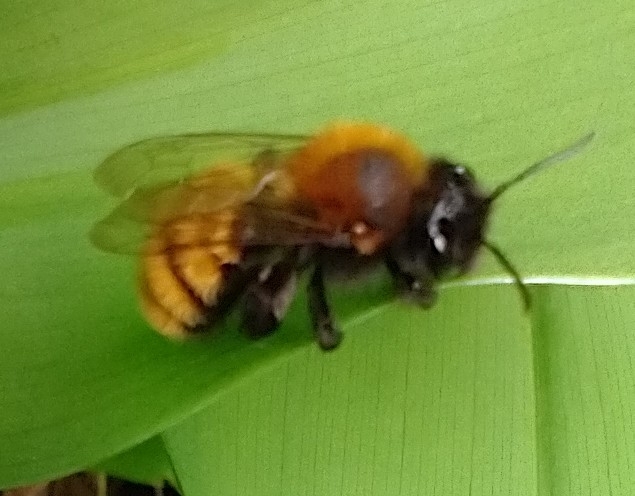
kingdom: Animalia
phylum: Arthropoda
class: Insecta
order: Hymenoptera
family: Andrenidae
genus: Andrena
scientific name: Andrena fulva
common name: Tawny mining bee
